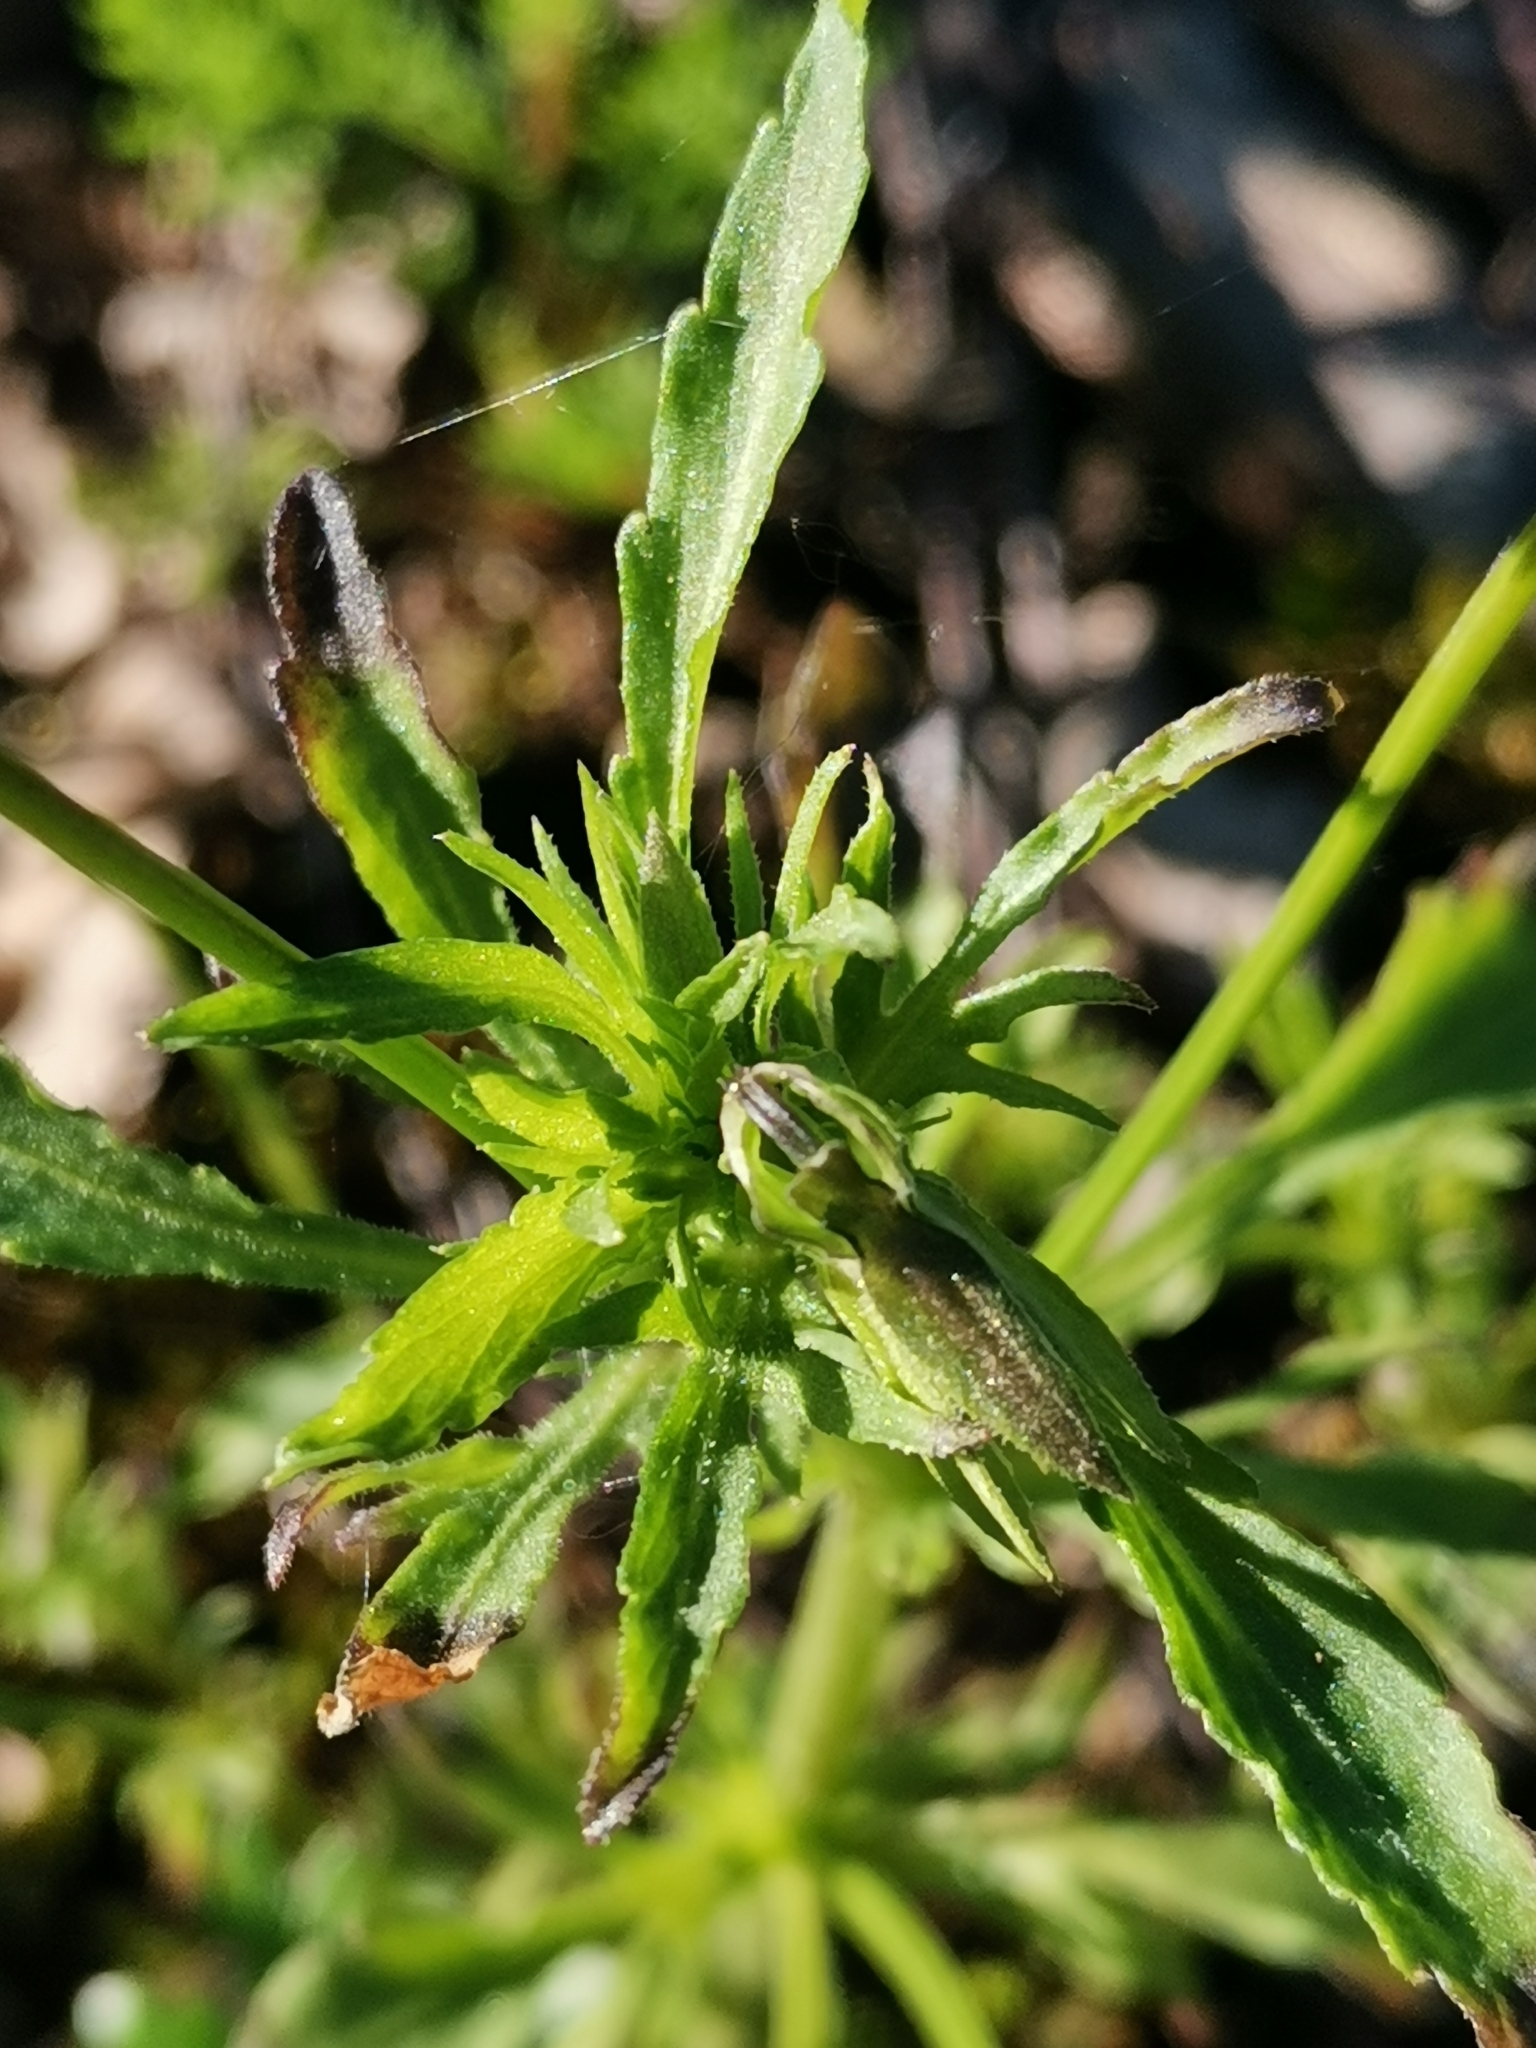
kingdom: Plantae
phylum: Tracheophyta
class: Magnoliopsida
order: Malpighiales
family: Violaceae
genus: Viola
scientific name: Viola arvensis
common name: Field pansy
